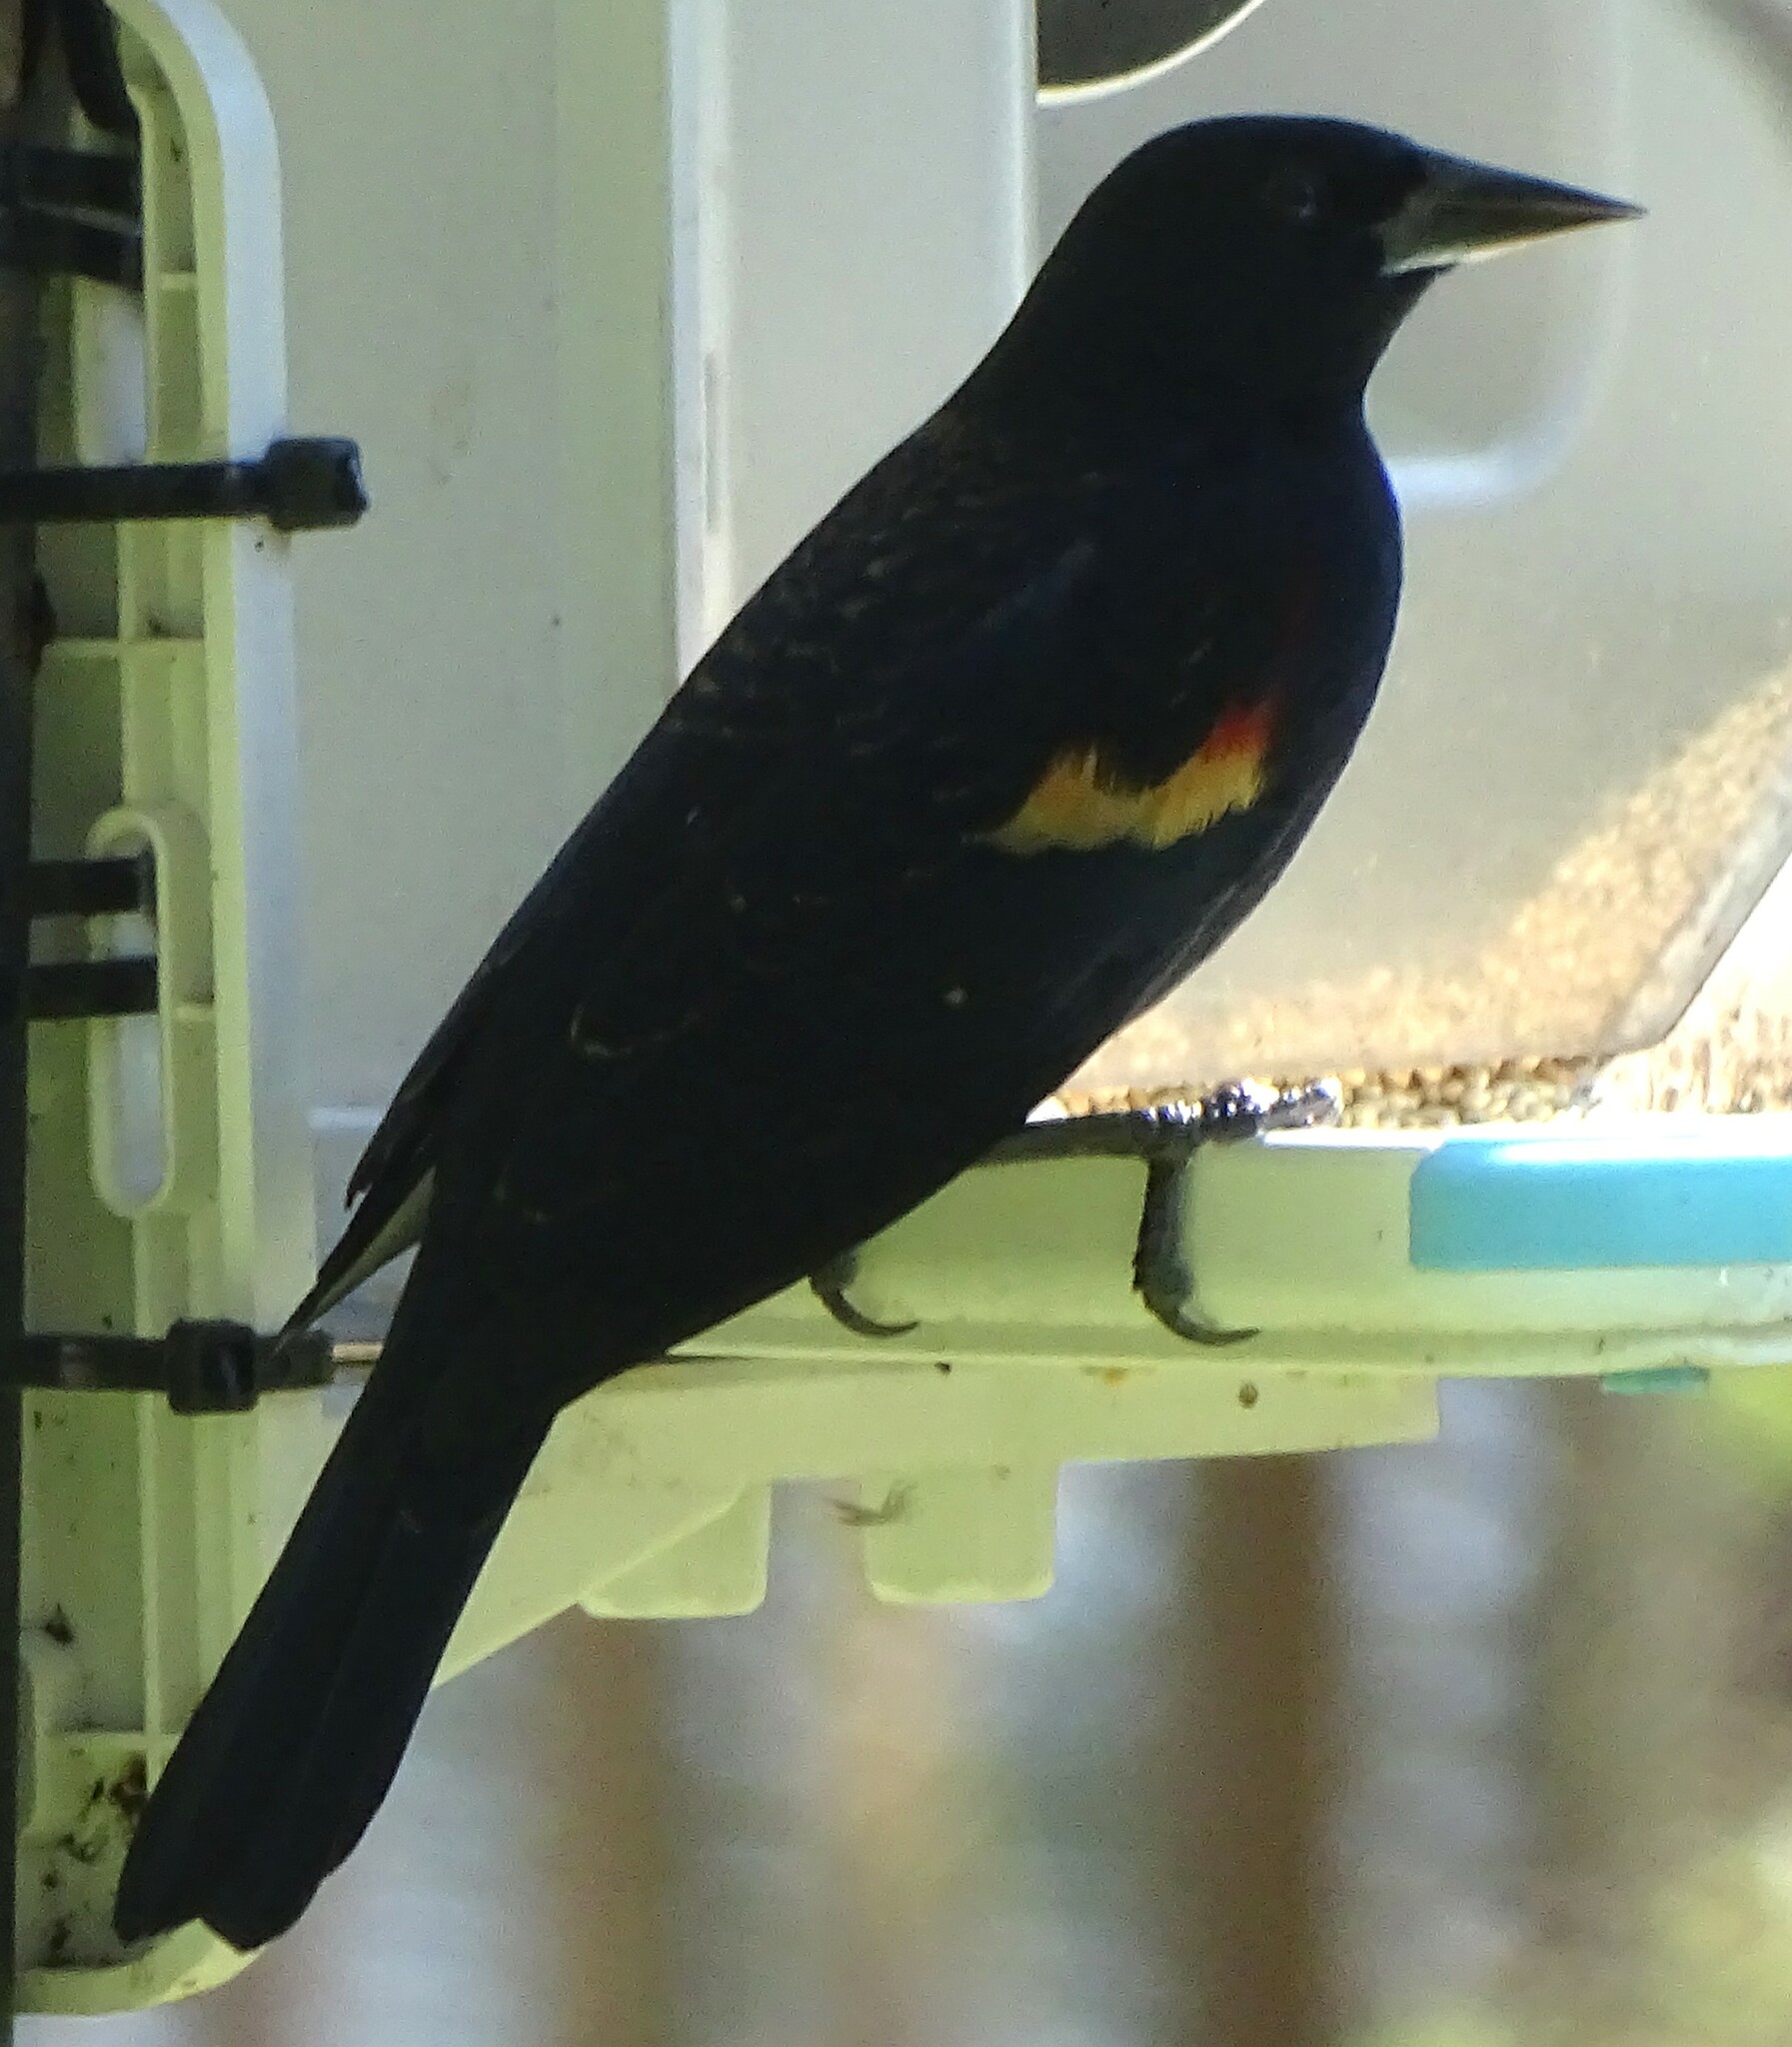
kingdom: Animalia
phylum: Chordata
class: Aves
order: Passeriformes
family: Icteridae
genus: Agelaius
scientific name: Agelaius phoeniceus
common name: Red-winged blackbird
